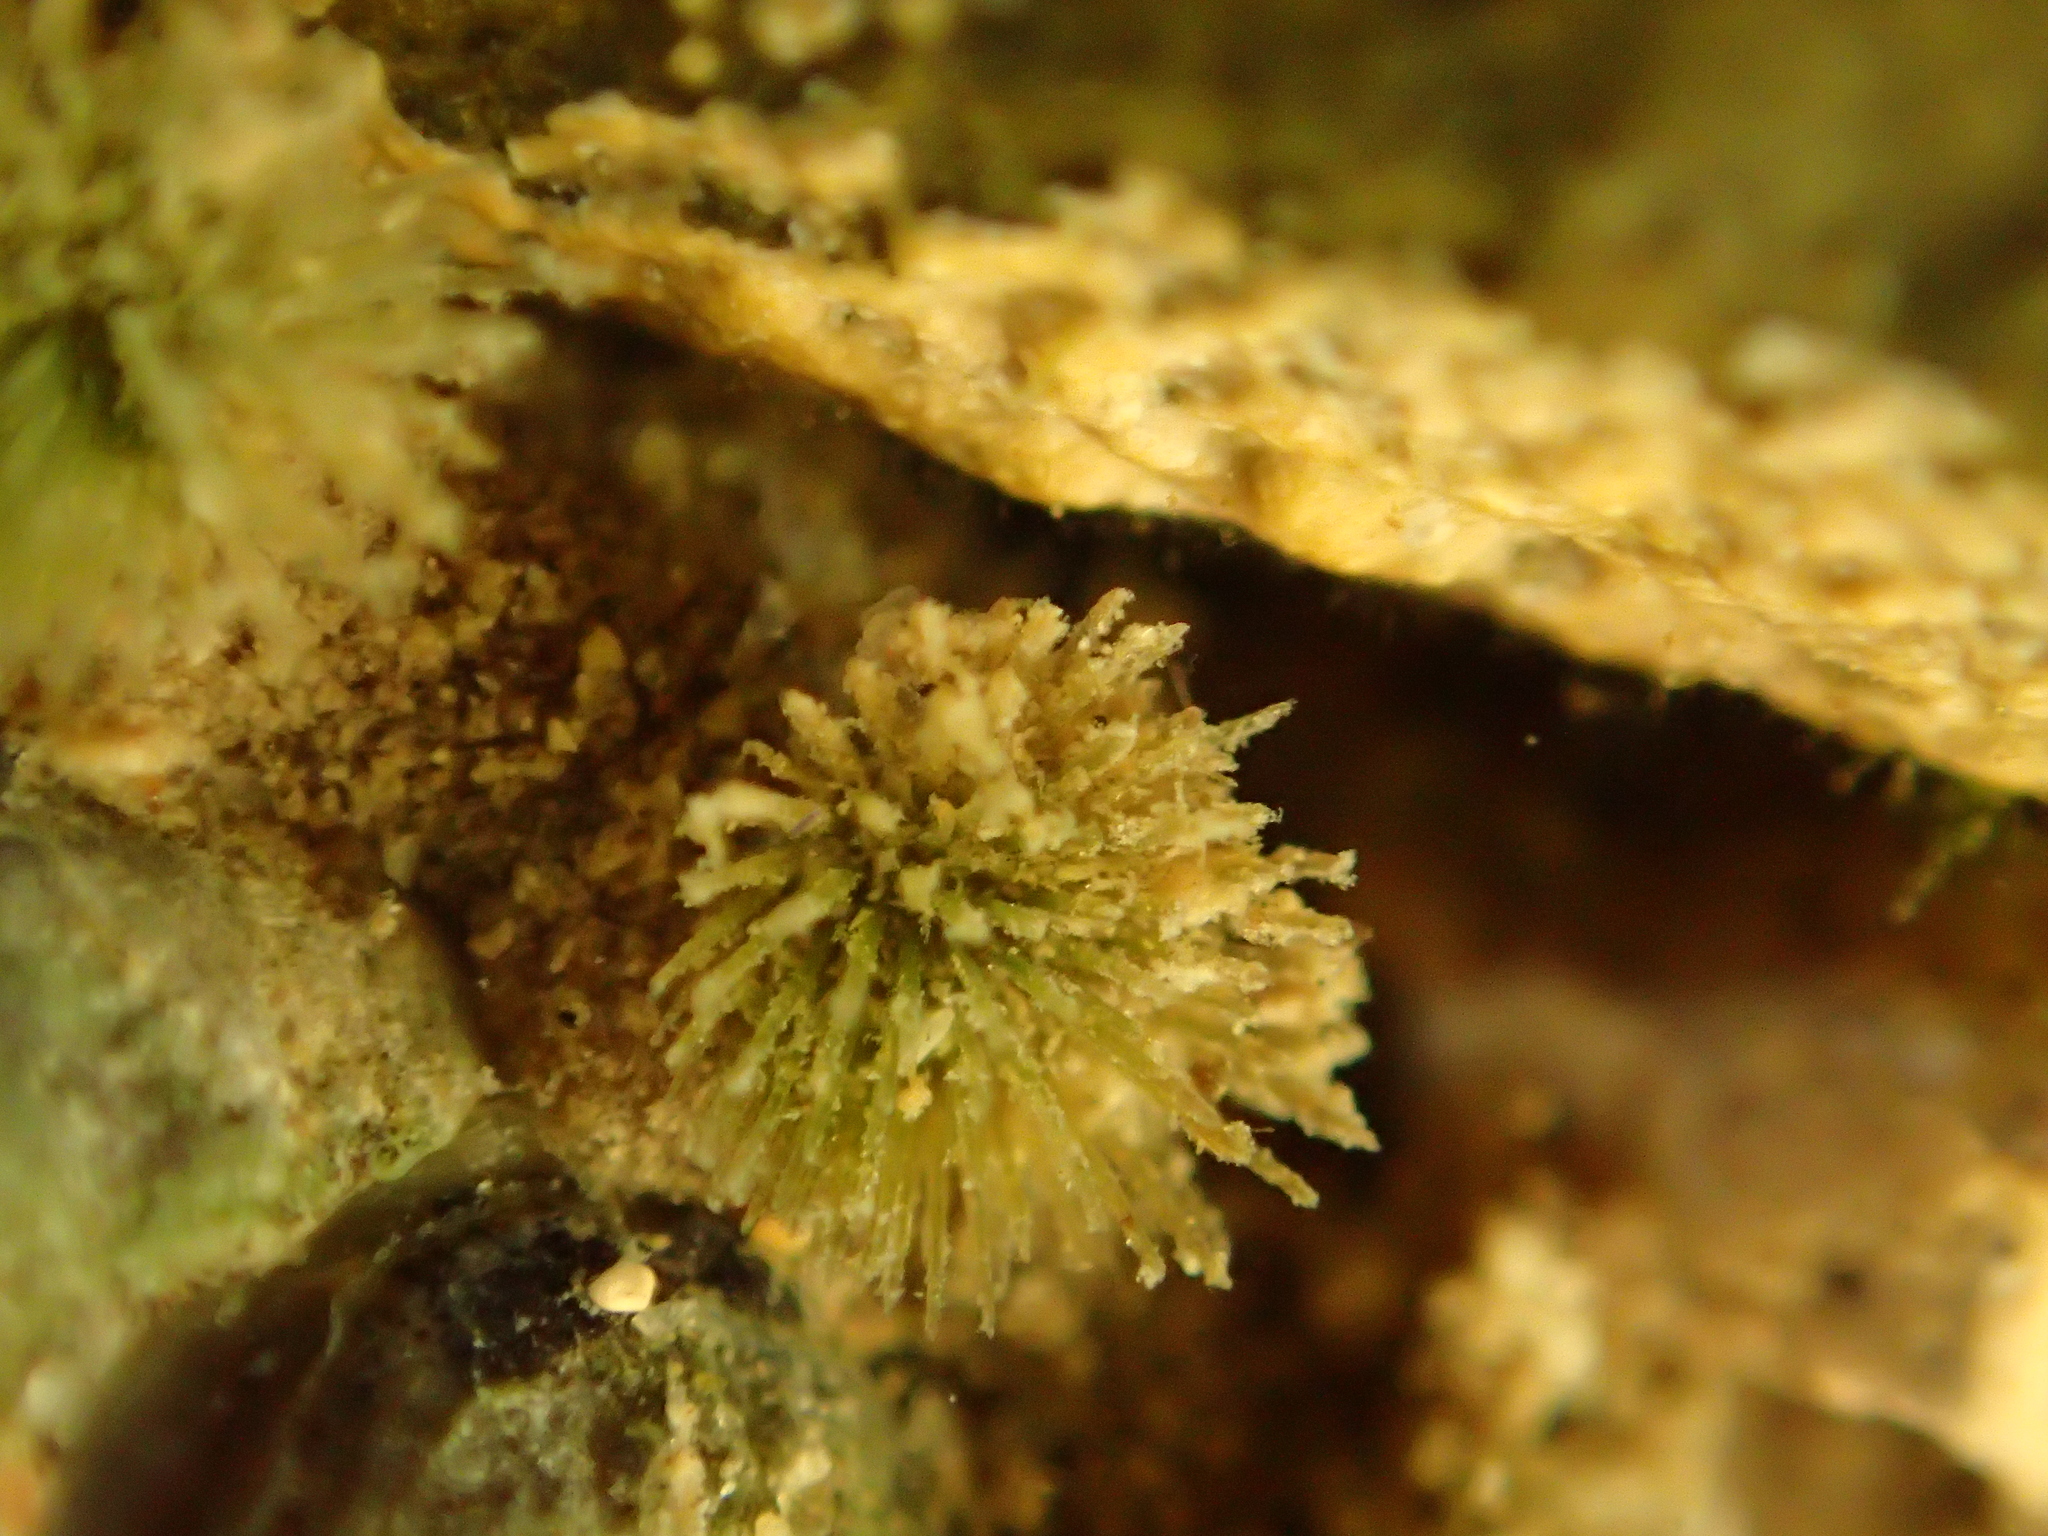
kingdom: Animalia
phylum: Mollusca
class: Polyplacophora
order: Chitonida
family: Acanthochitonidae
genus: Acanthochitona
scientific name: Acanthochitona zelandica
